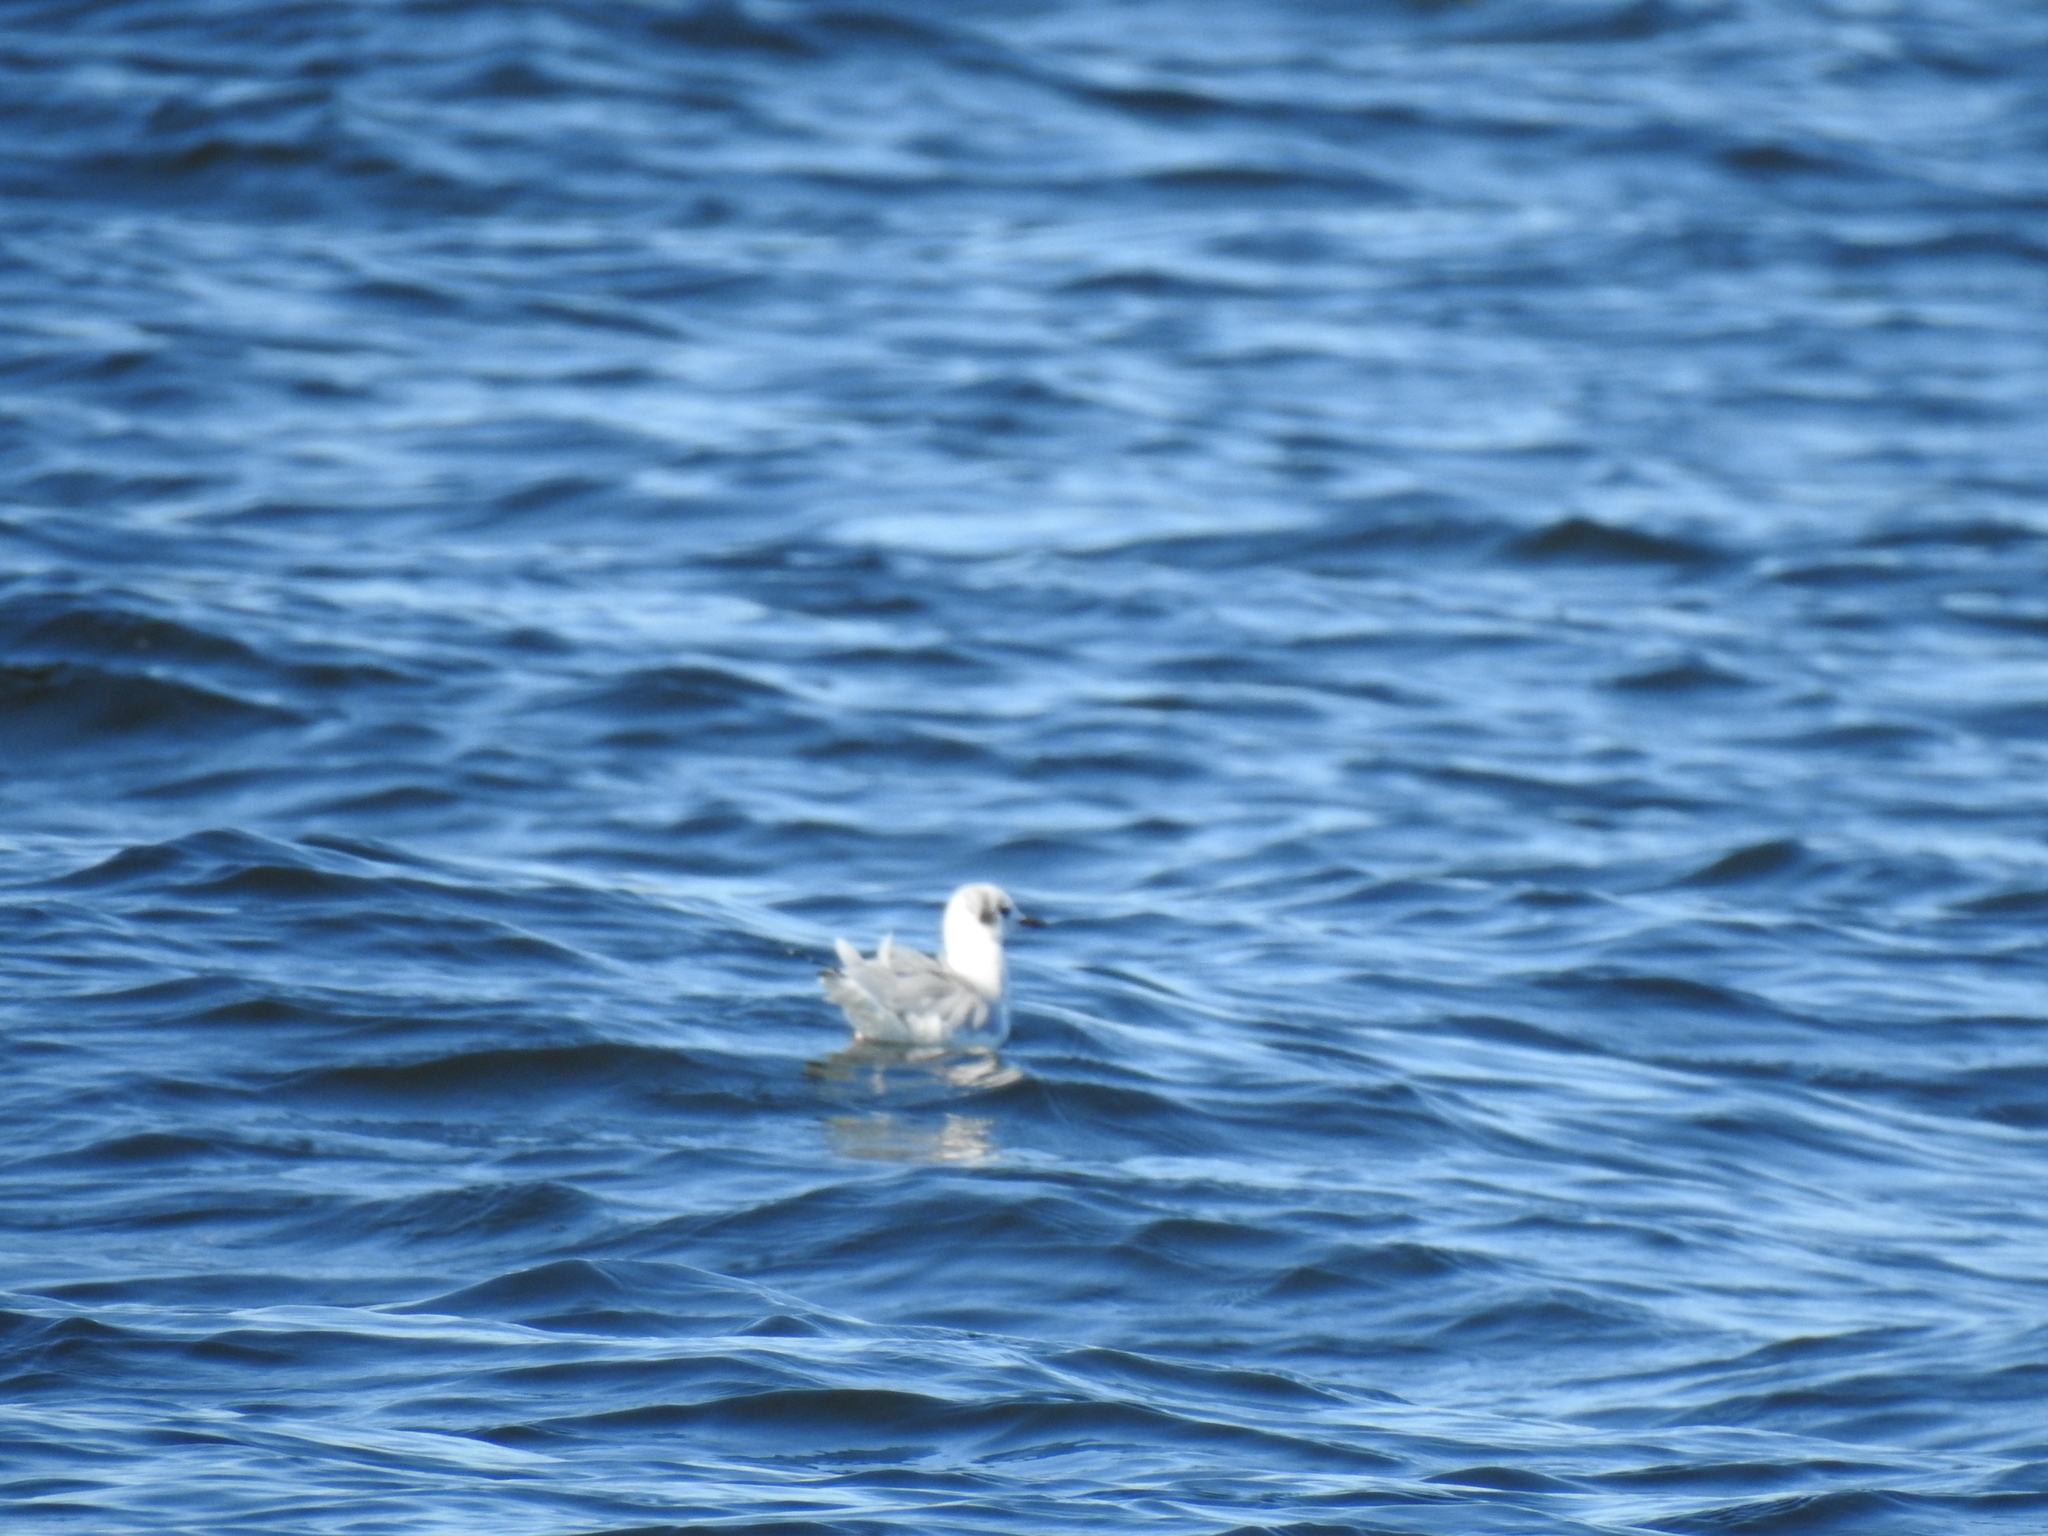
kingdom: Animalia
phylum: Chordata
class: Aves
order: Charadriiformes
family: Laridae
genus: Chroicocephalus
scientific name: Chroicocephalus philadelphia
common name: Bonaparte's gull
